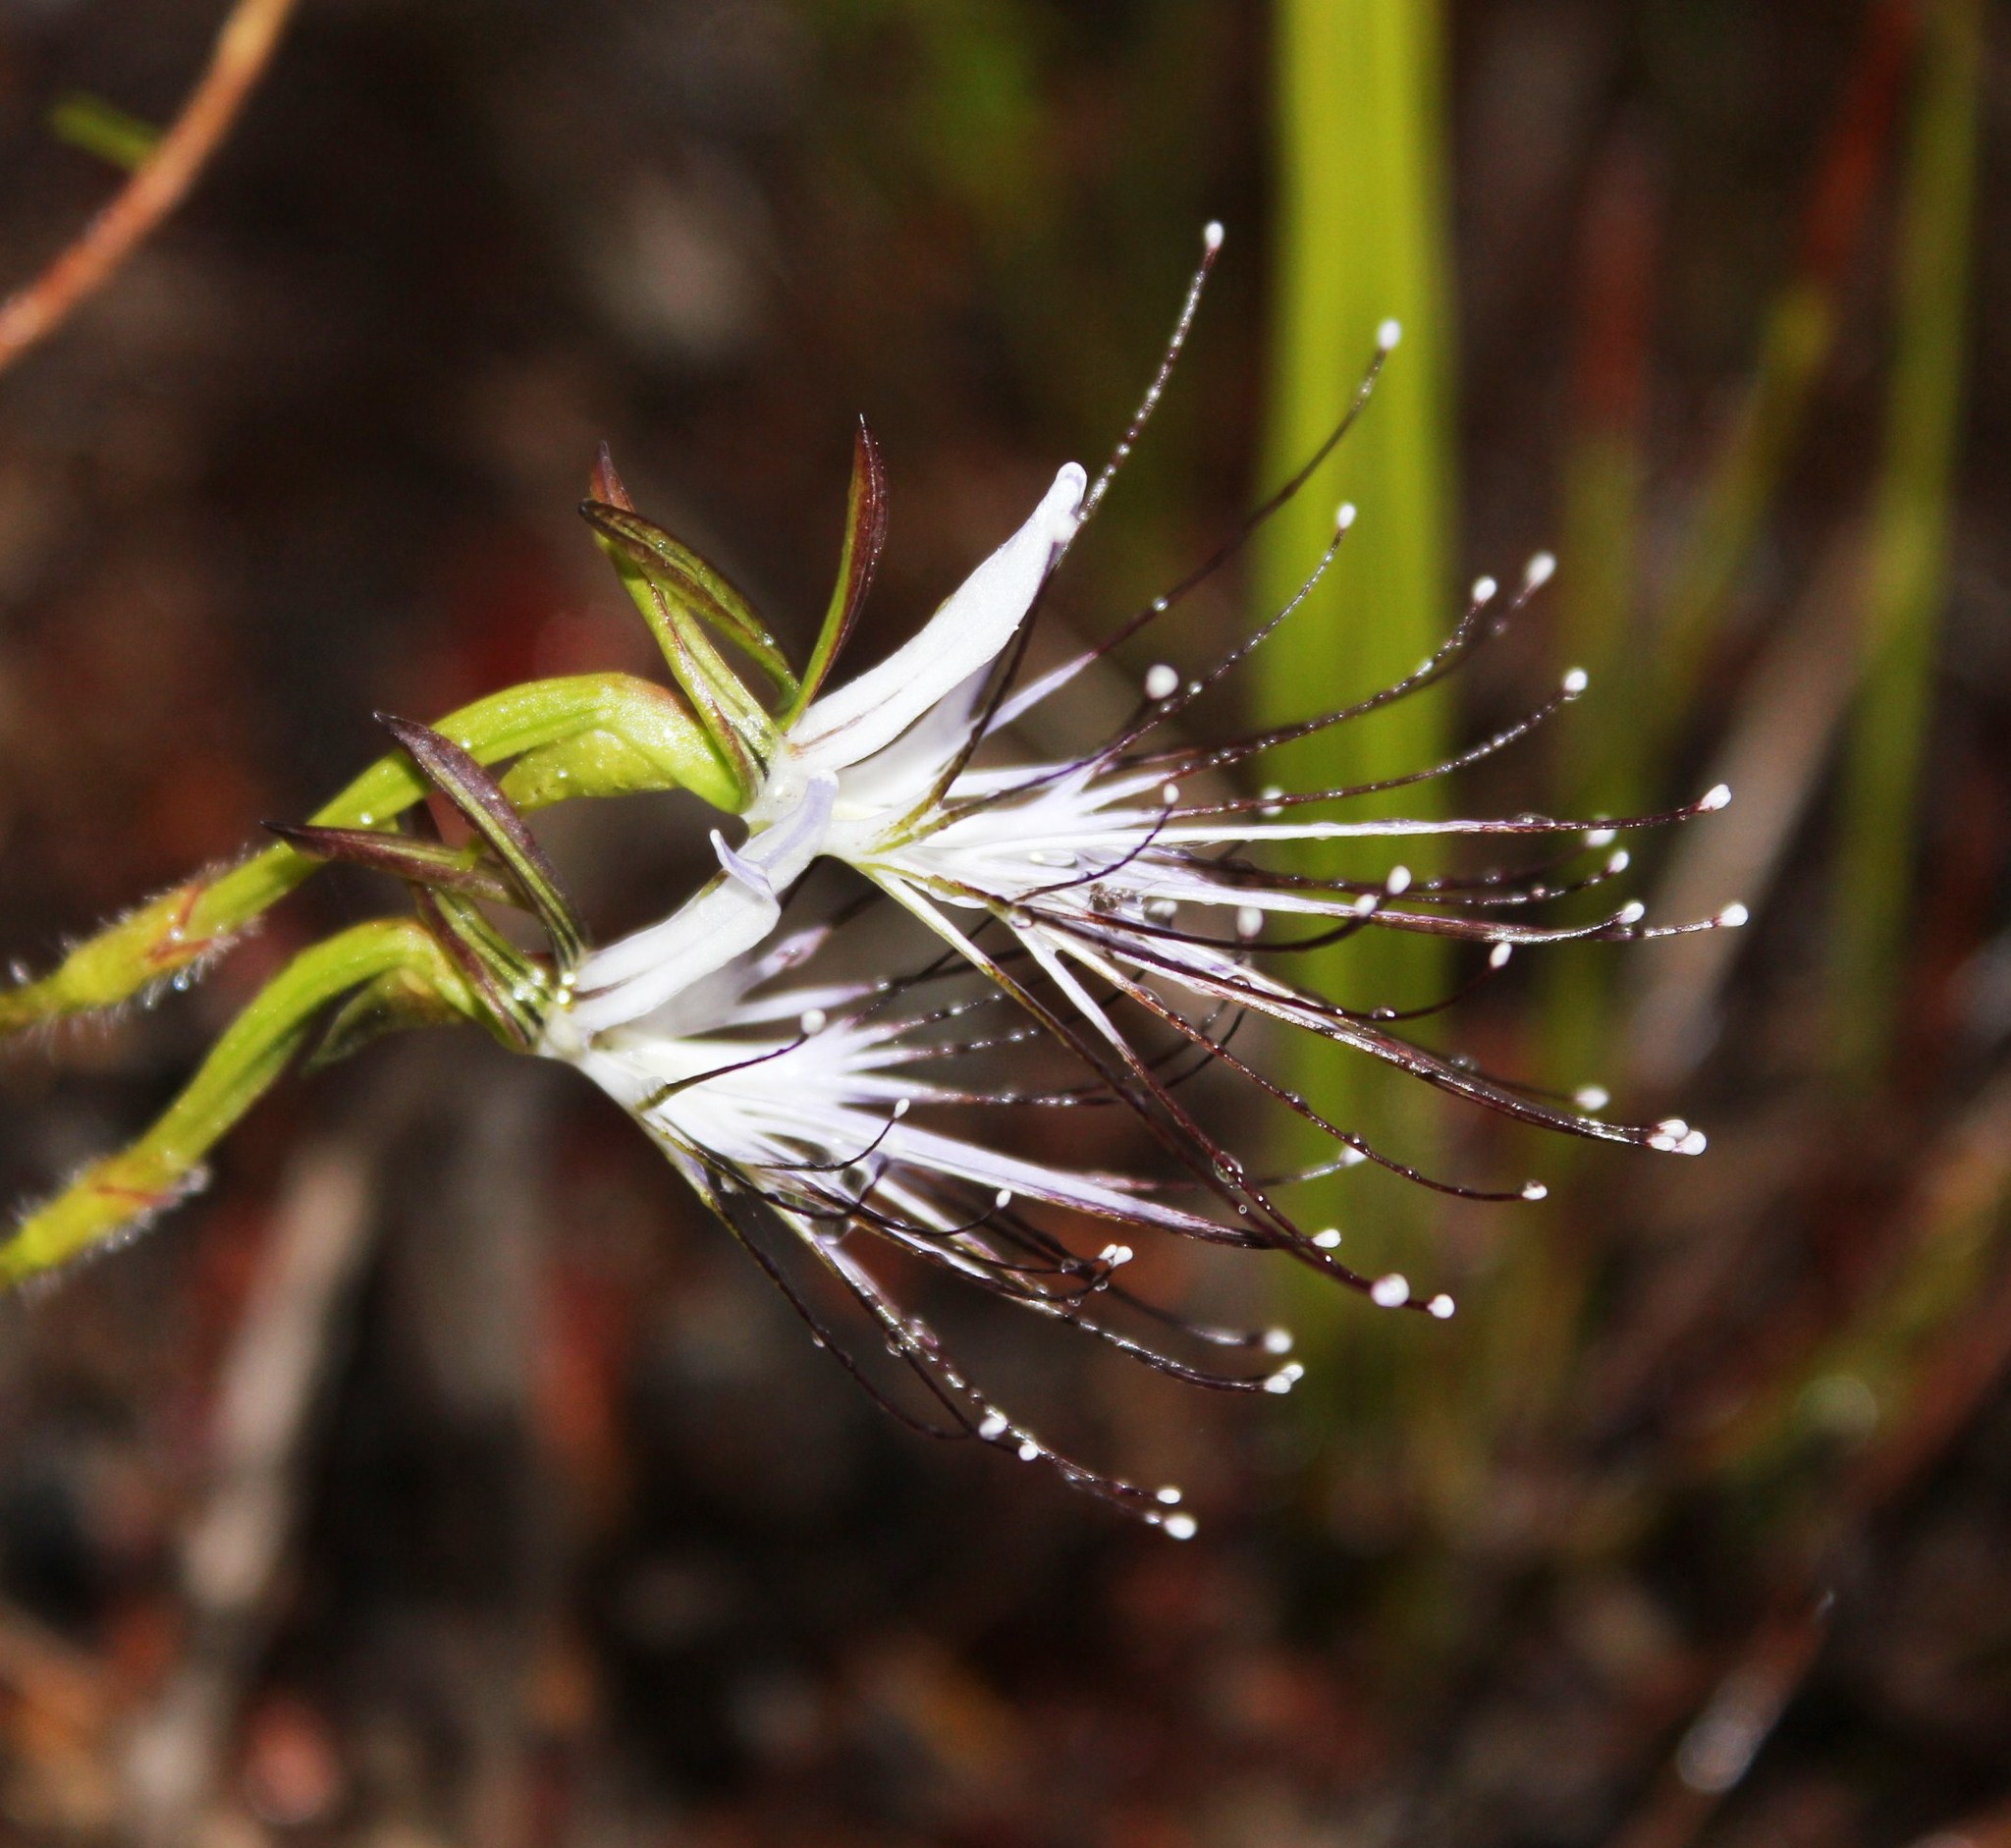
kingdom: Plantae
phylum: Tracheophyta
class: Liliopsida
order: Asparagales
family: Orchidaceae
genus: Holothrix
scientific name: Holothrix etheliae
